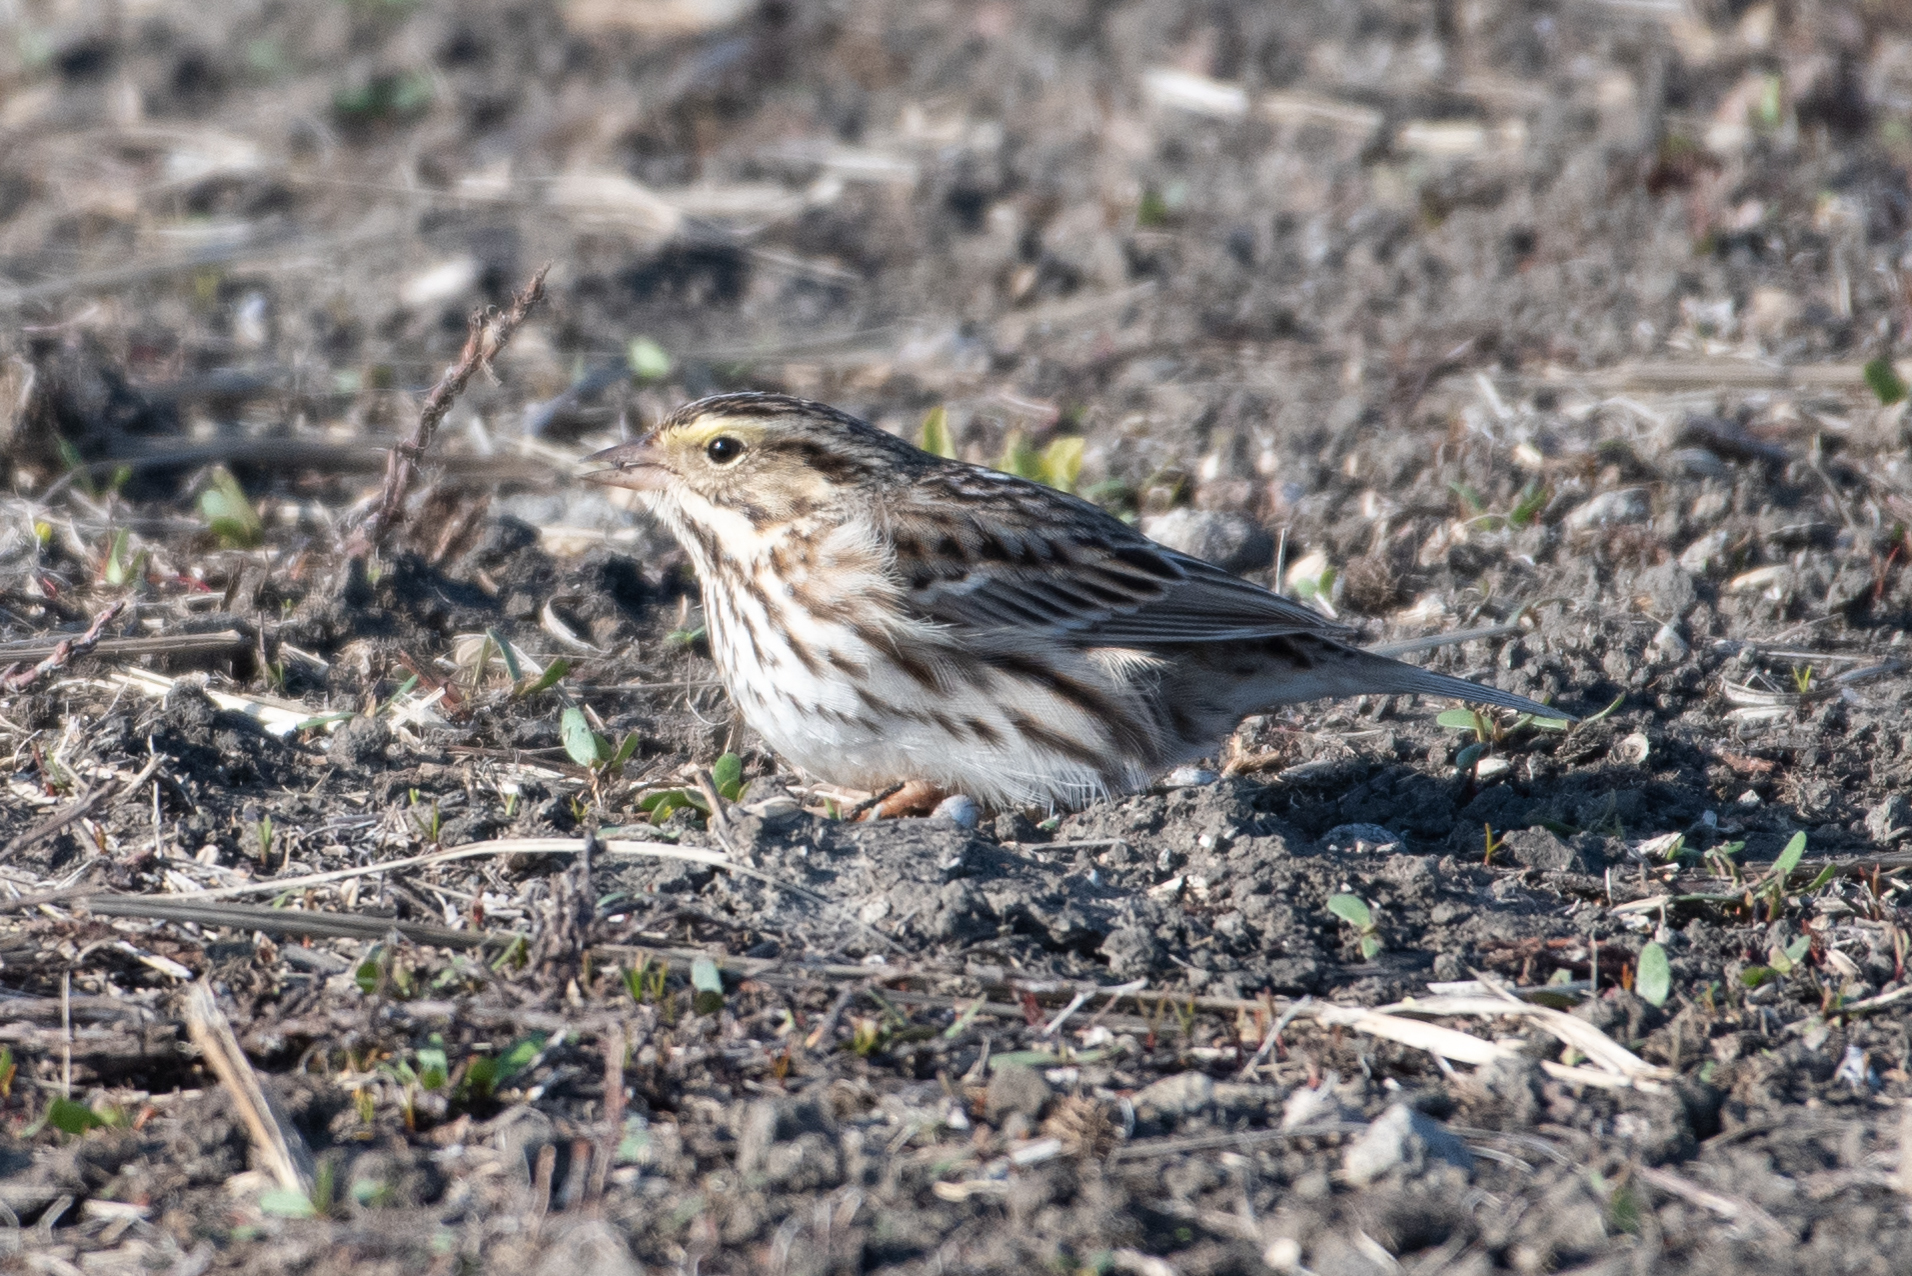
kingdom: Animalia
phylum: Chordata
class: Aves
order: Passeriformes
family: Passerellidae
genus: Passerculus
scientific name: Passerculus sandwichensis
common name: Savannah sparrow
